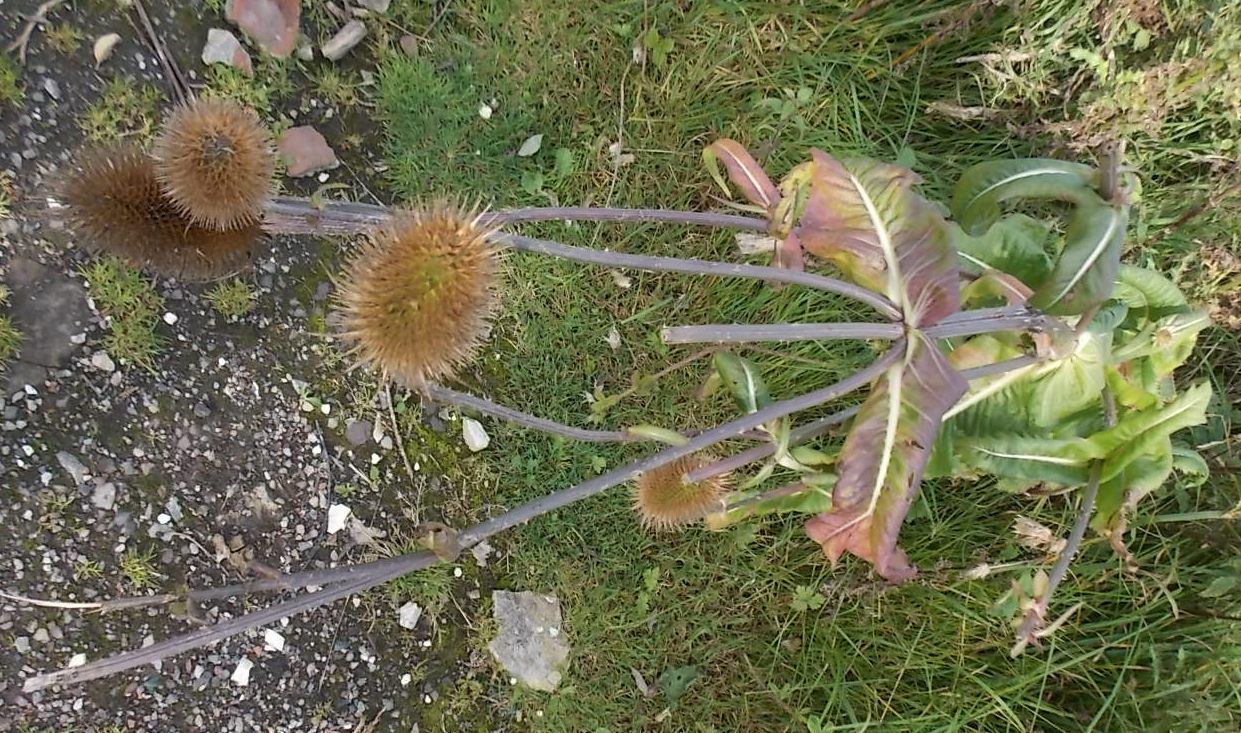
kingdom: Plantae
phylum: Tracheophyta
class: Magnoliopsida
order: Dipsacales
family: Caprifoliaceae
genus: Dipsacus
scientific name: Dipsacus fullonum
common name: Teasel
